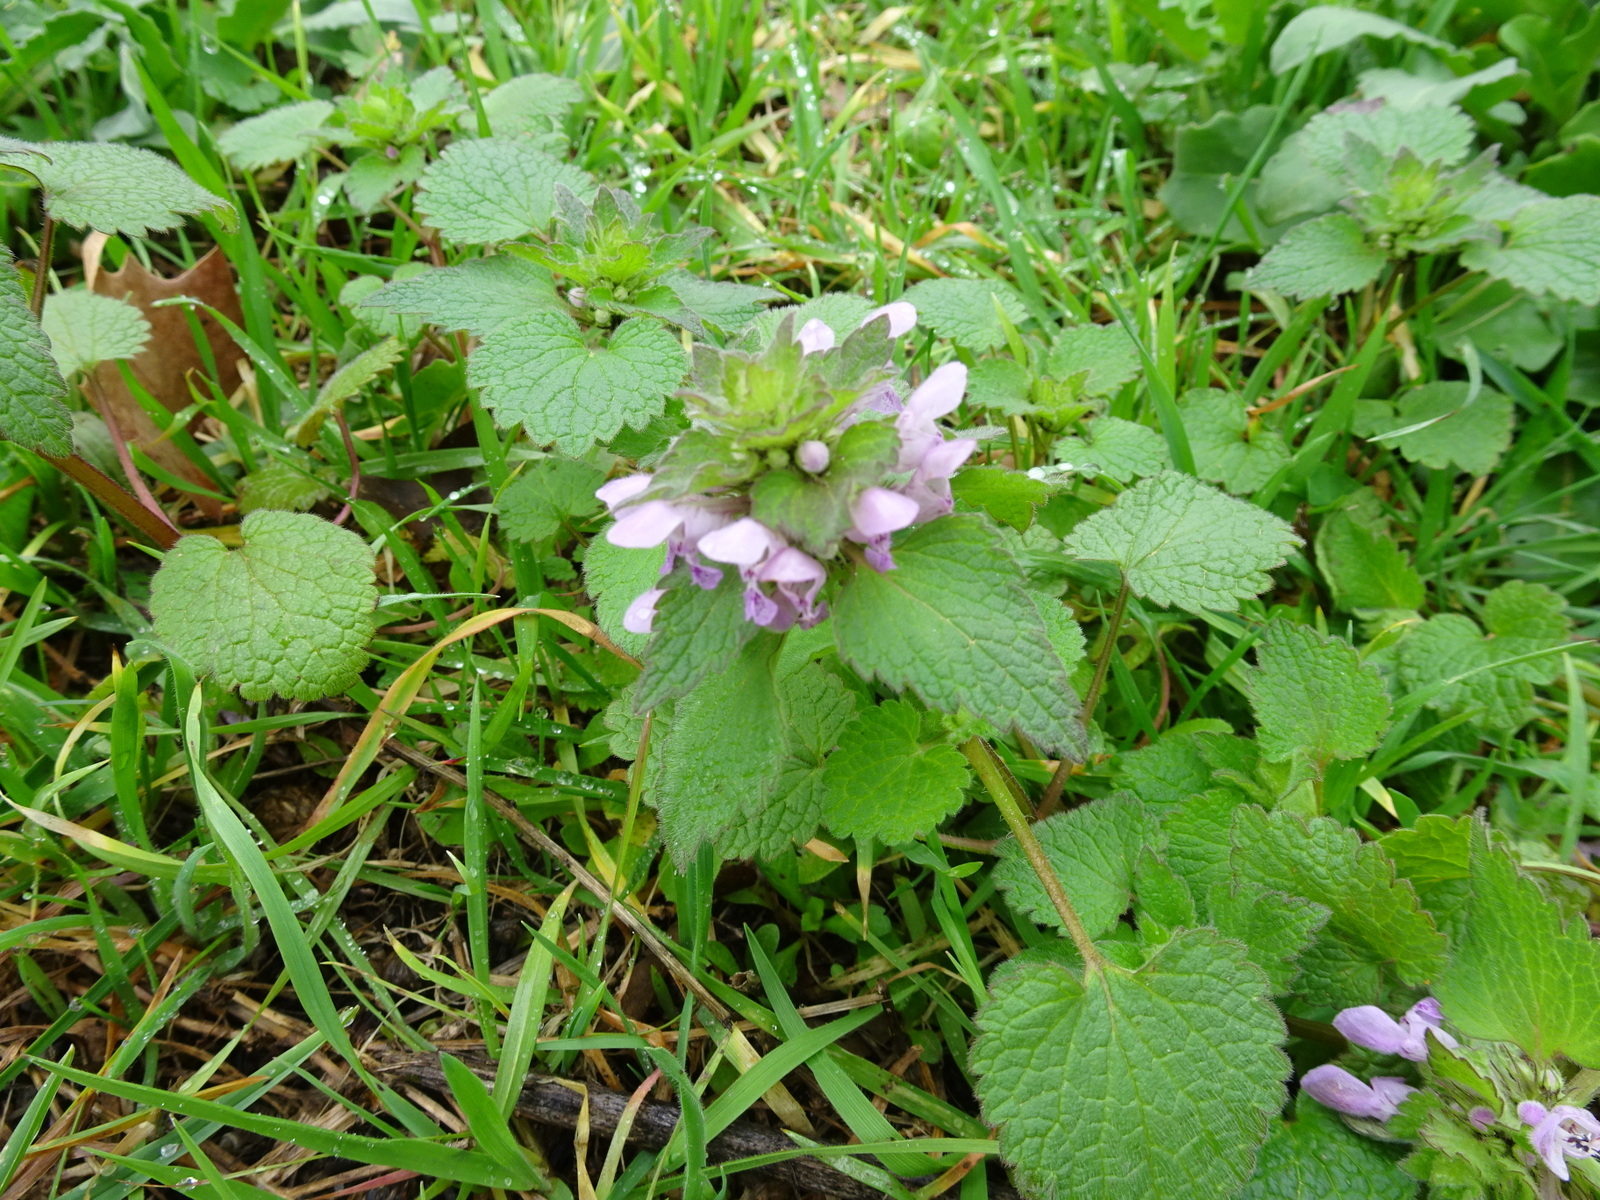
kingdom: Plantae
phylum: Tracheophyta
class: Magnoliopsida
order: Lamiales
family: Lamiaceae
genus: Lamium
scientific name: Lamium purpureum
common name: Red dead-nettle
